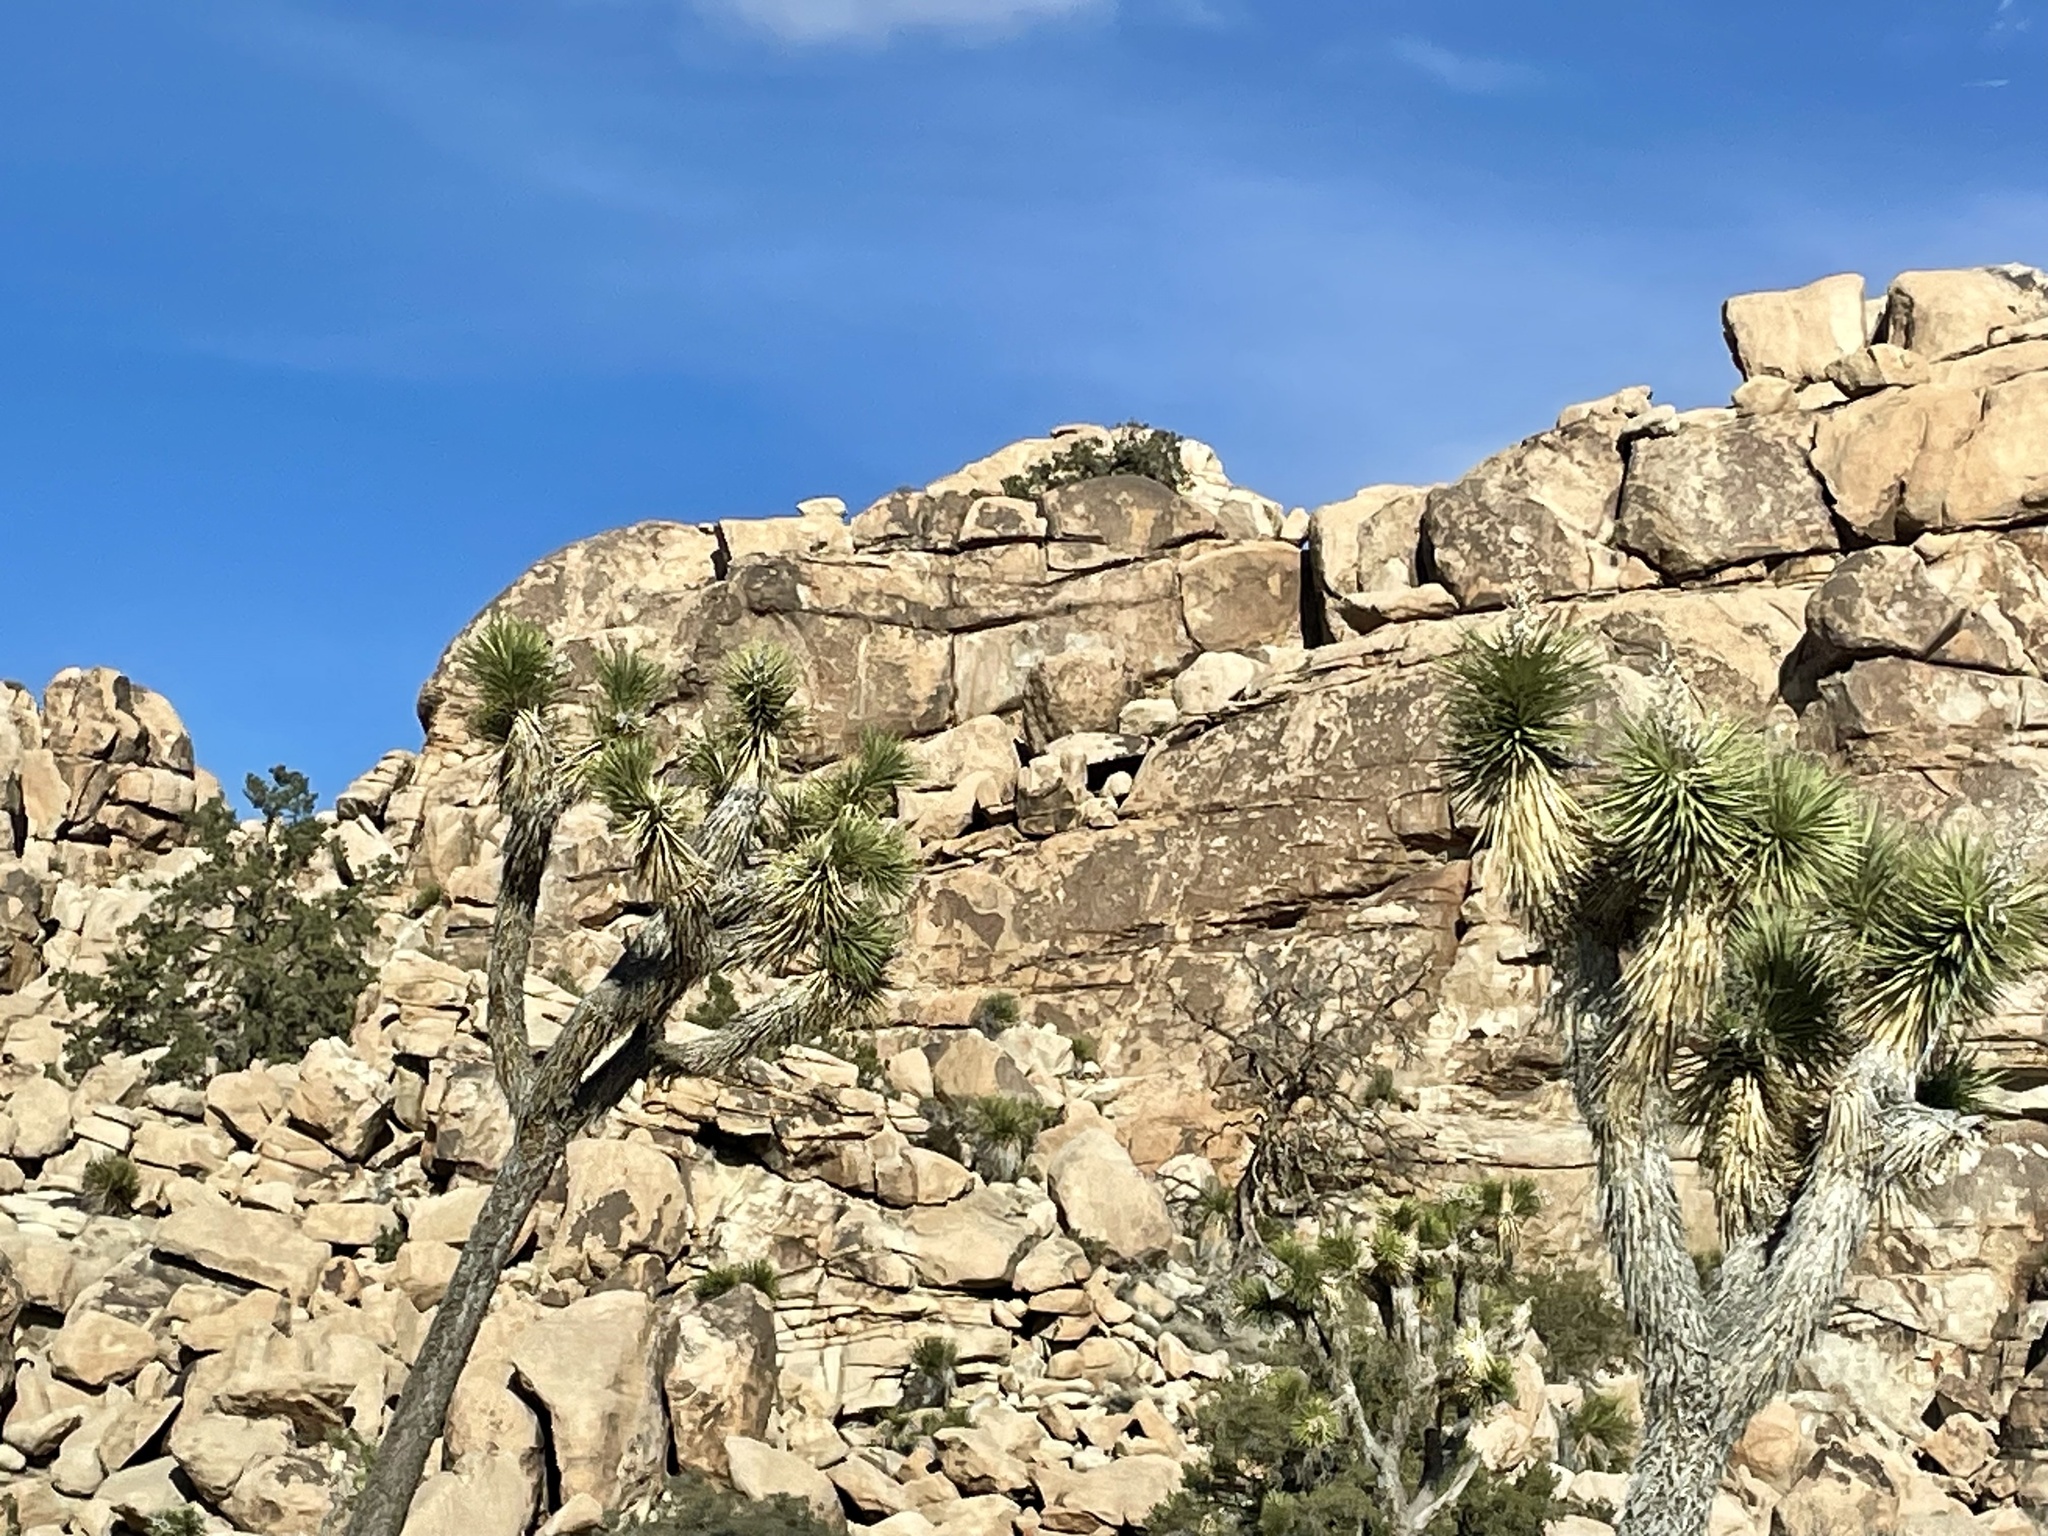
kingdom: Plantae
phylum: Tracheophyta
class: Liliopsida
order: Asparagales
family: Asparagaceae
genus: Yucca
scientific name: Yucca brevifolia
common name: Joshua tree
